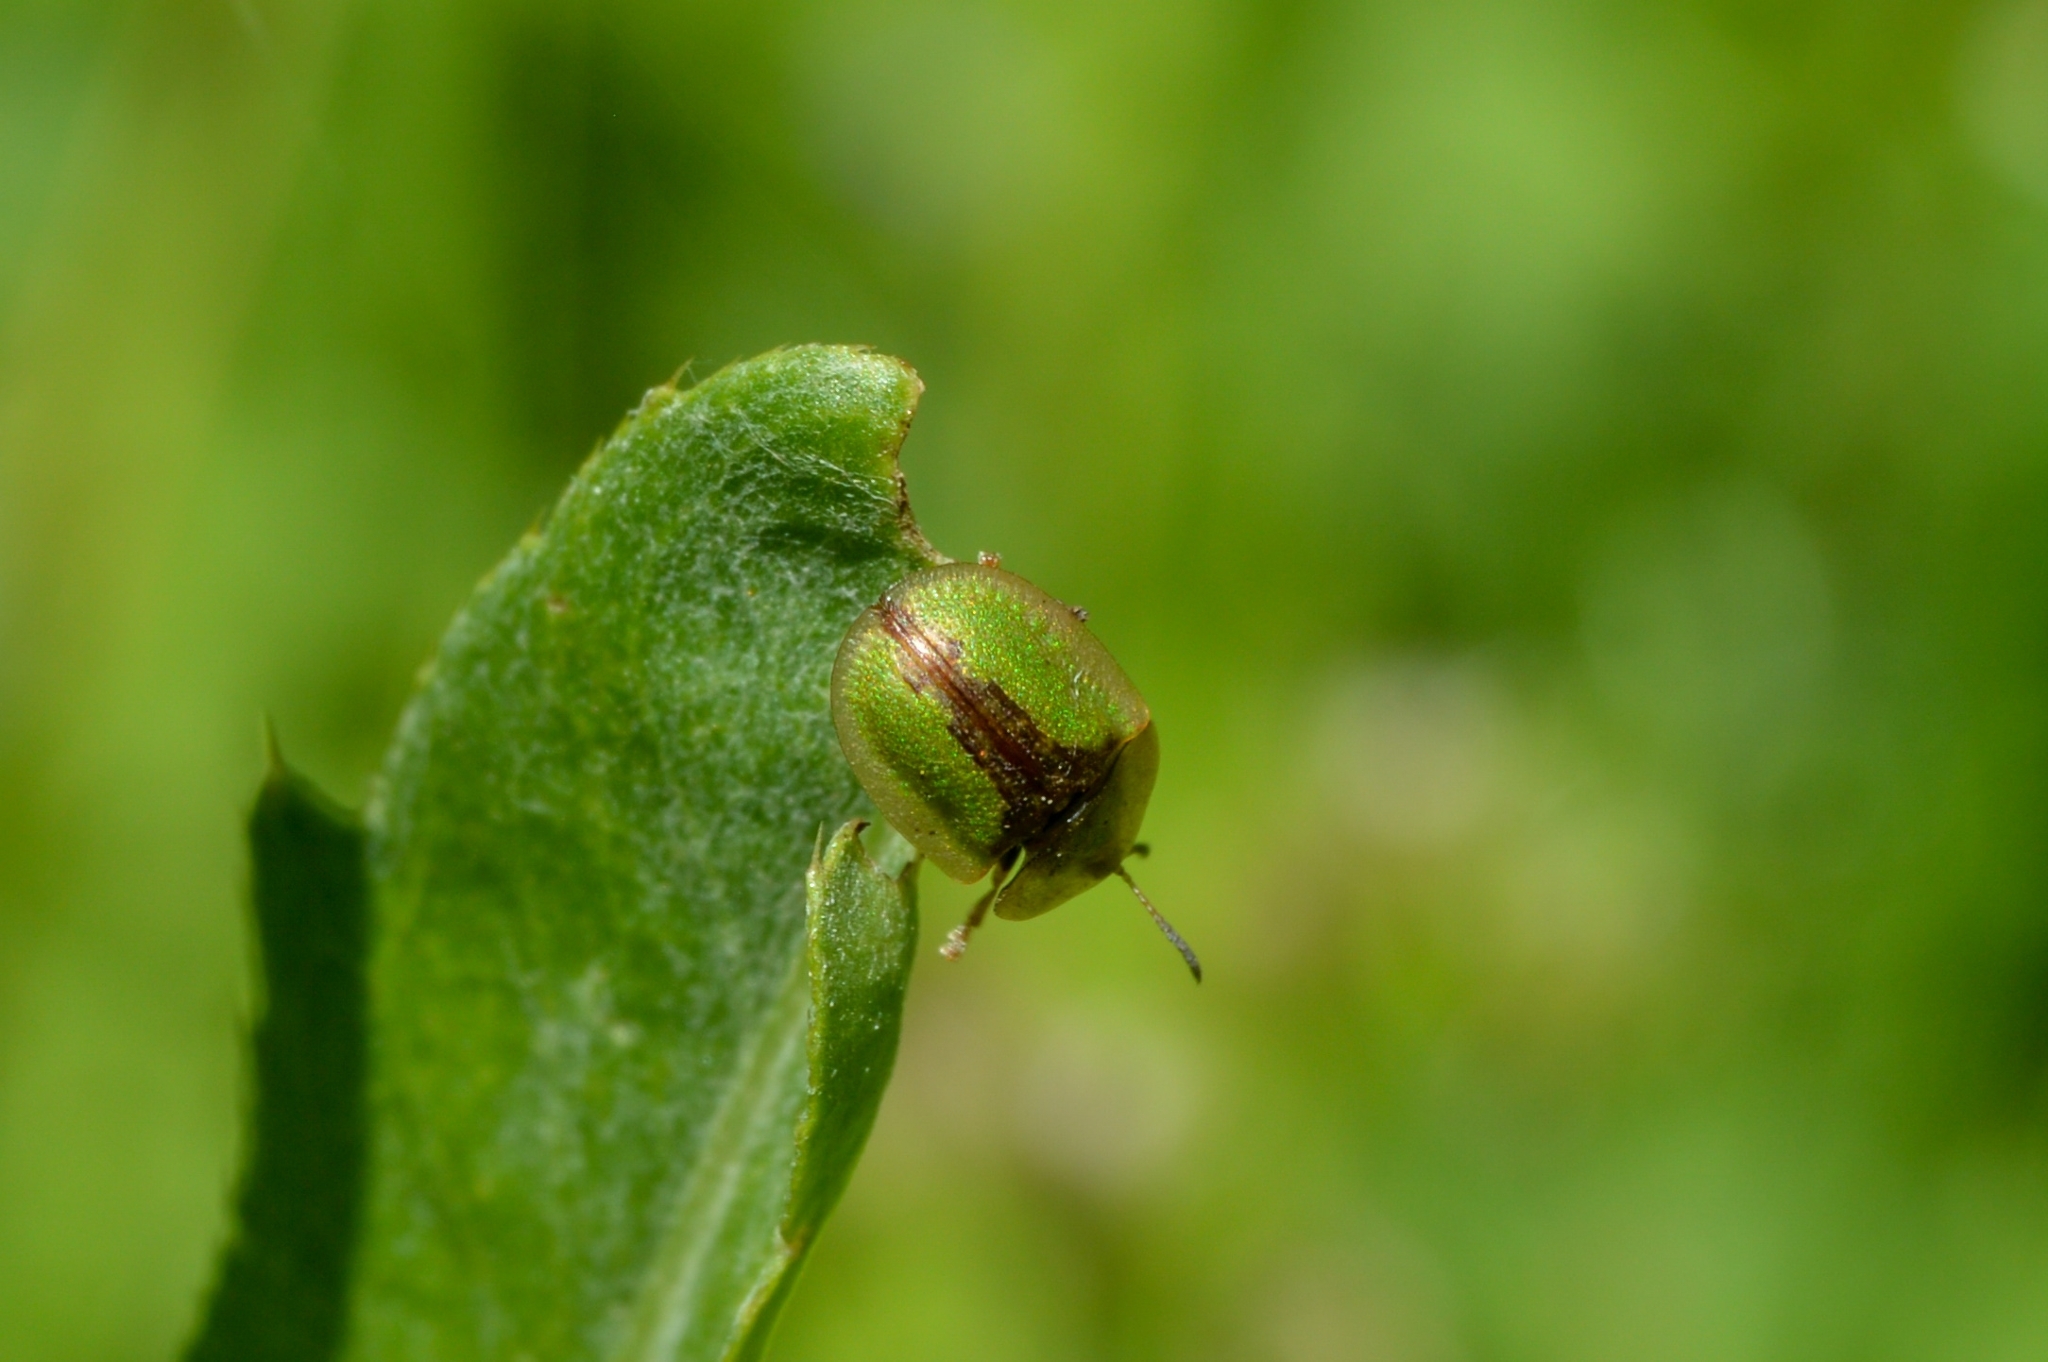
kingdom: Animalia
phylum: Arthropoda
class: Insecta
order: Coleoptera
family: Chrysomelidae
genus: Cassida
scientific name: Cassida vibex
